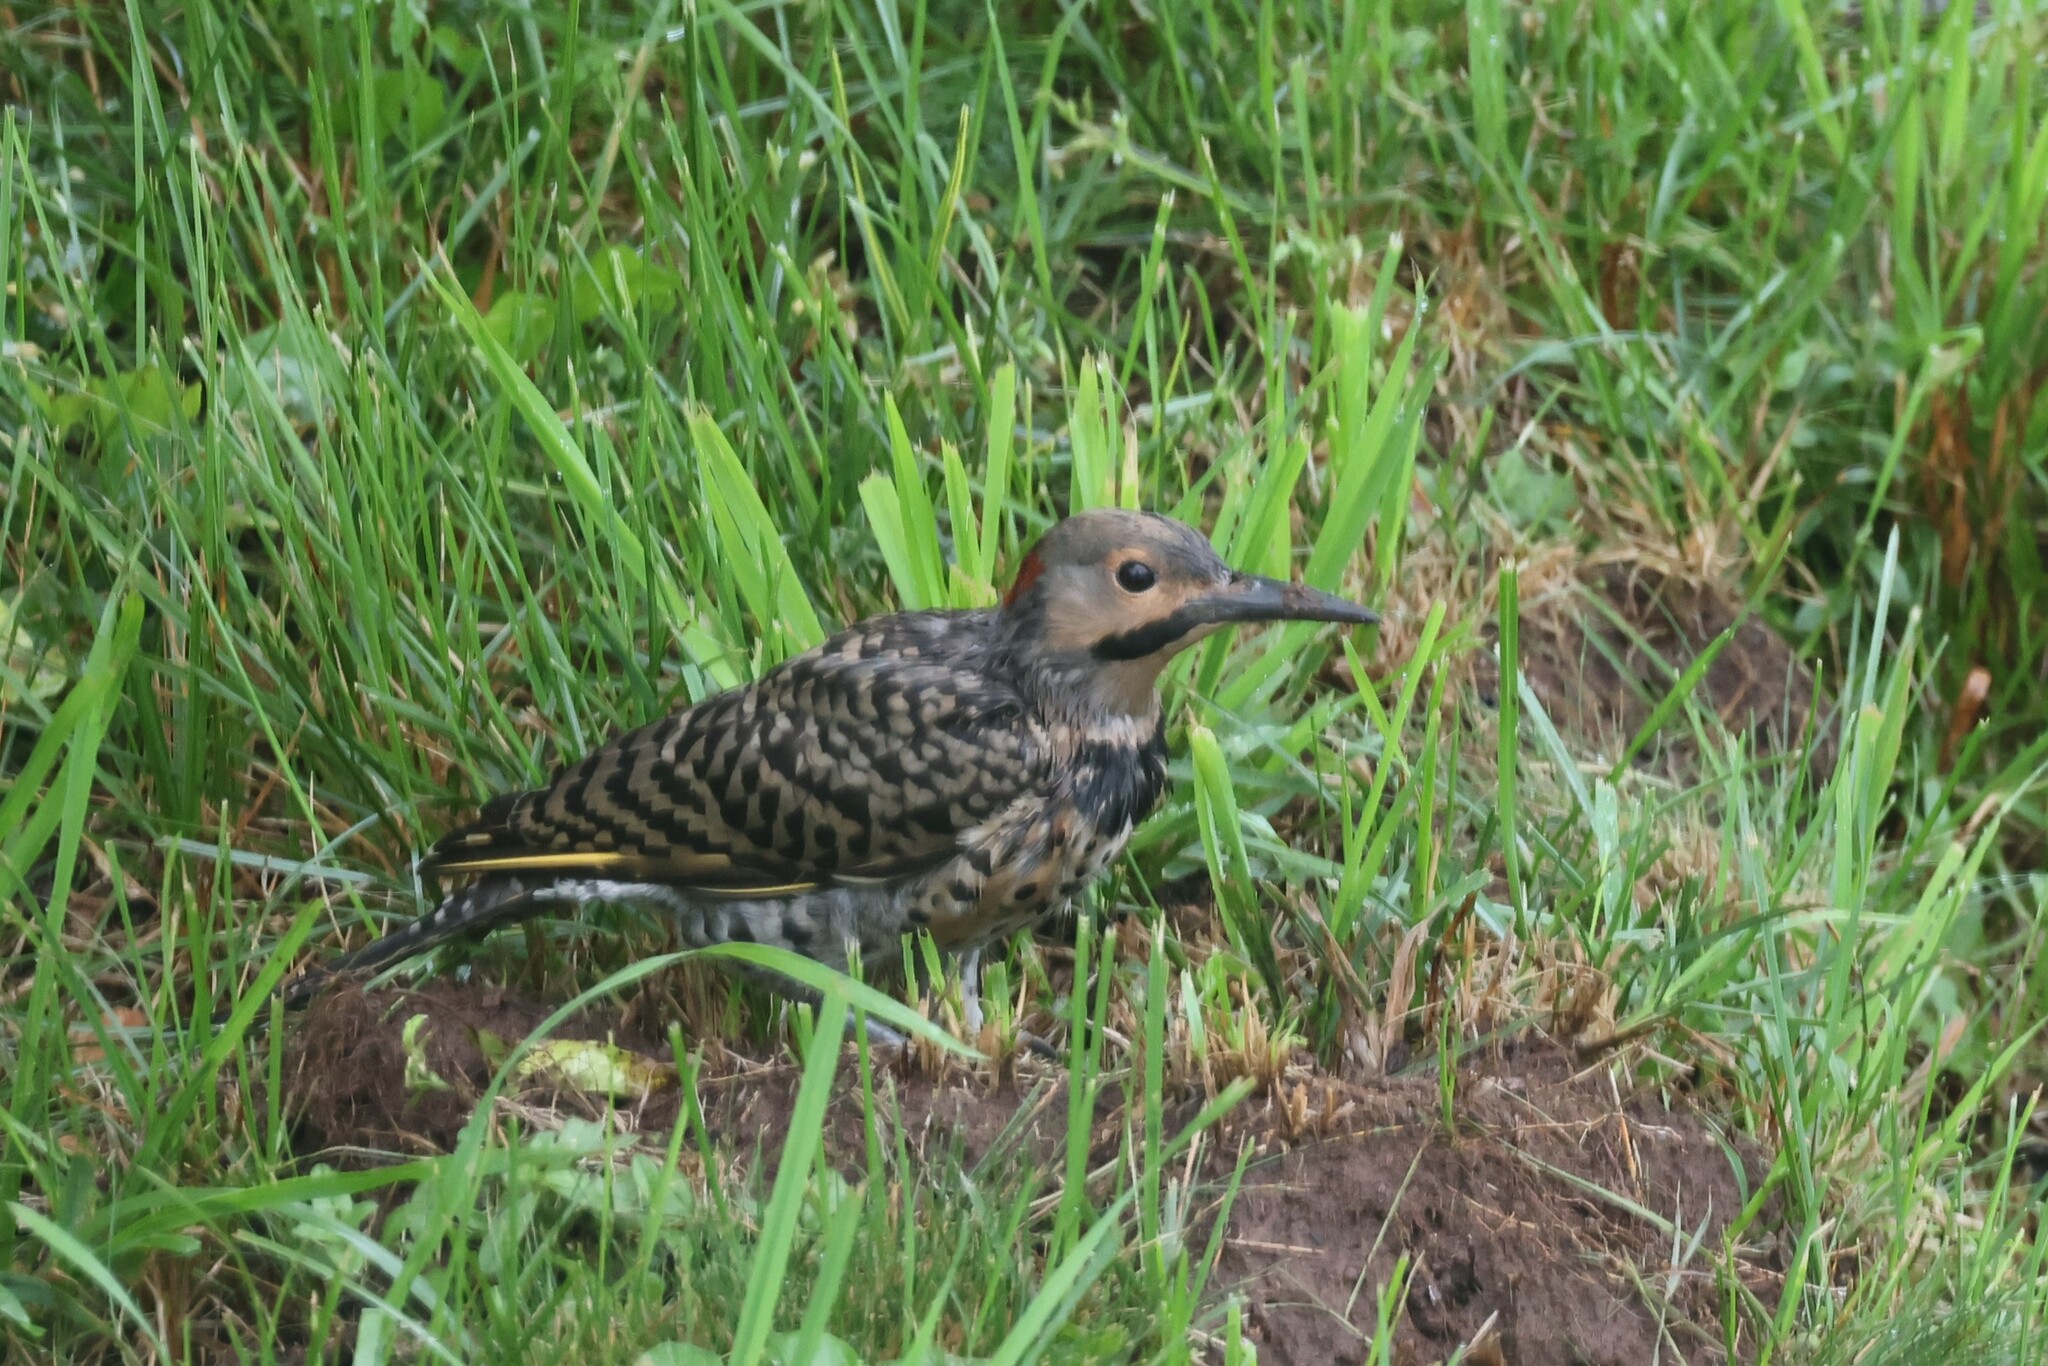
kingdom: Animalia
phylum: Chordata
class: Aves
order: Piciformes
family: Picidae
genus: Colaptes
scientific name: Colaptes auratus
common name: Northern flicker
